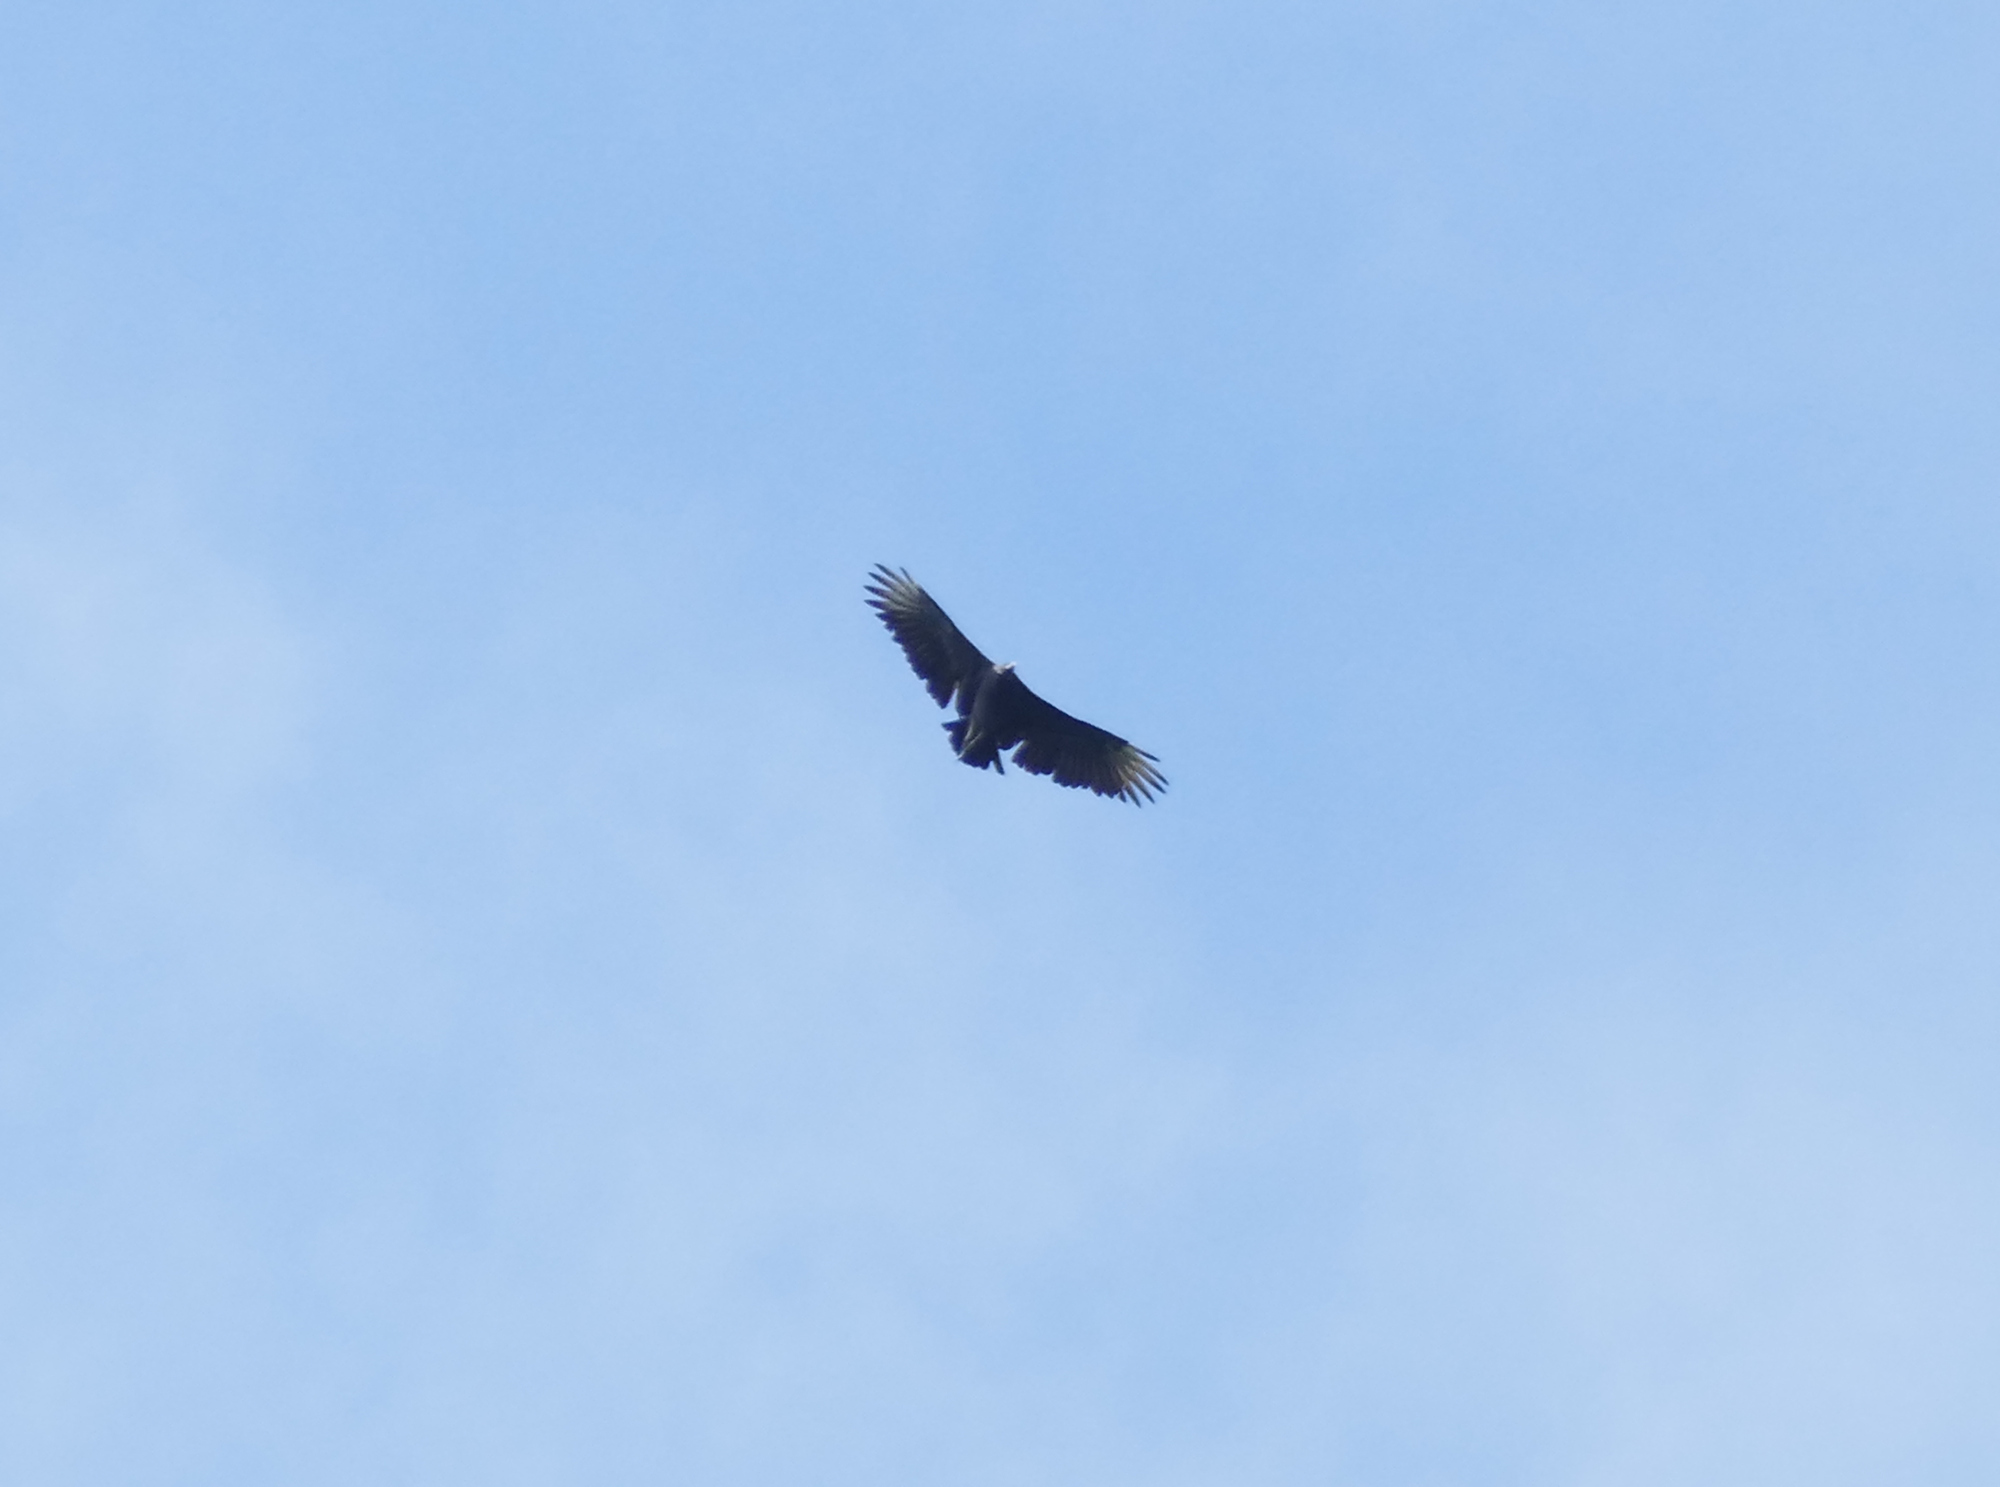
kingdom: Animalia
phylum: Chordata
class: Aves
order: Accipitriformes
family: Cathartidae
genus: Coragyps
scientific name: Coragyps atratus
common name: Black vulture
